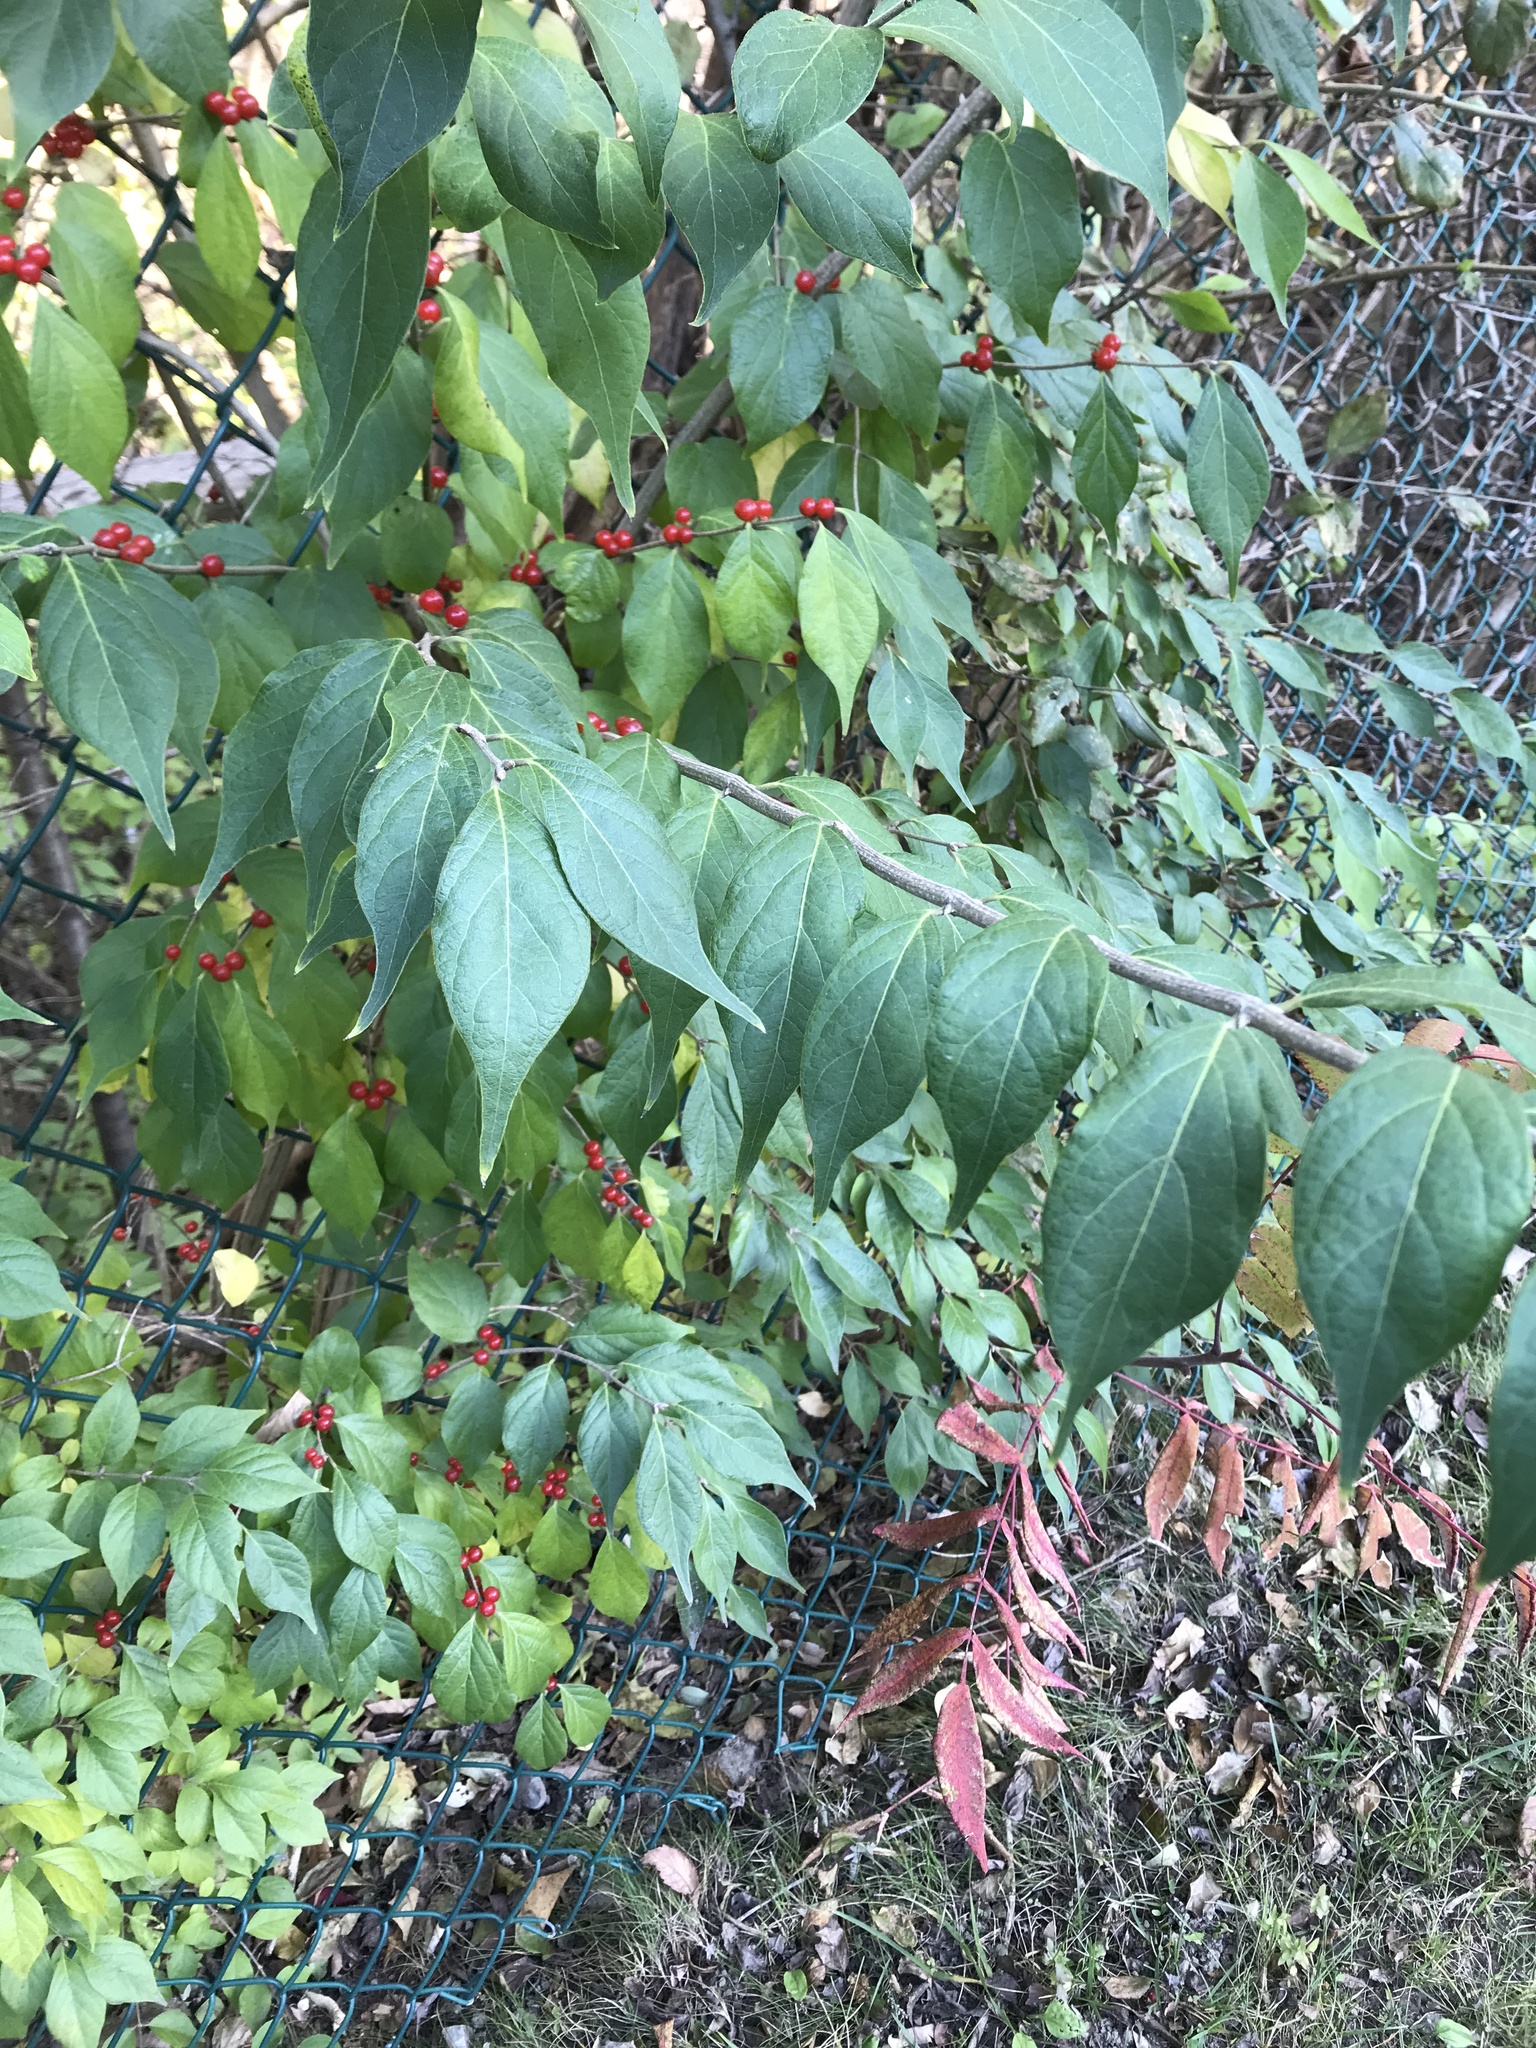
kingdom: Plantae
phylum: Tracheophyta
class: Magnoliopsida
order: Dipsacales
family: Caprifoliaceae
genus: Lonicera
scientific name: Lonicera maackii
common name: Amur honeysuckle
